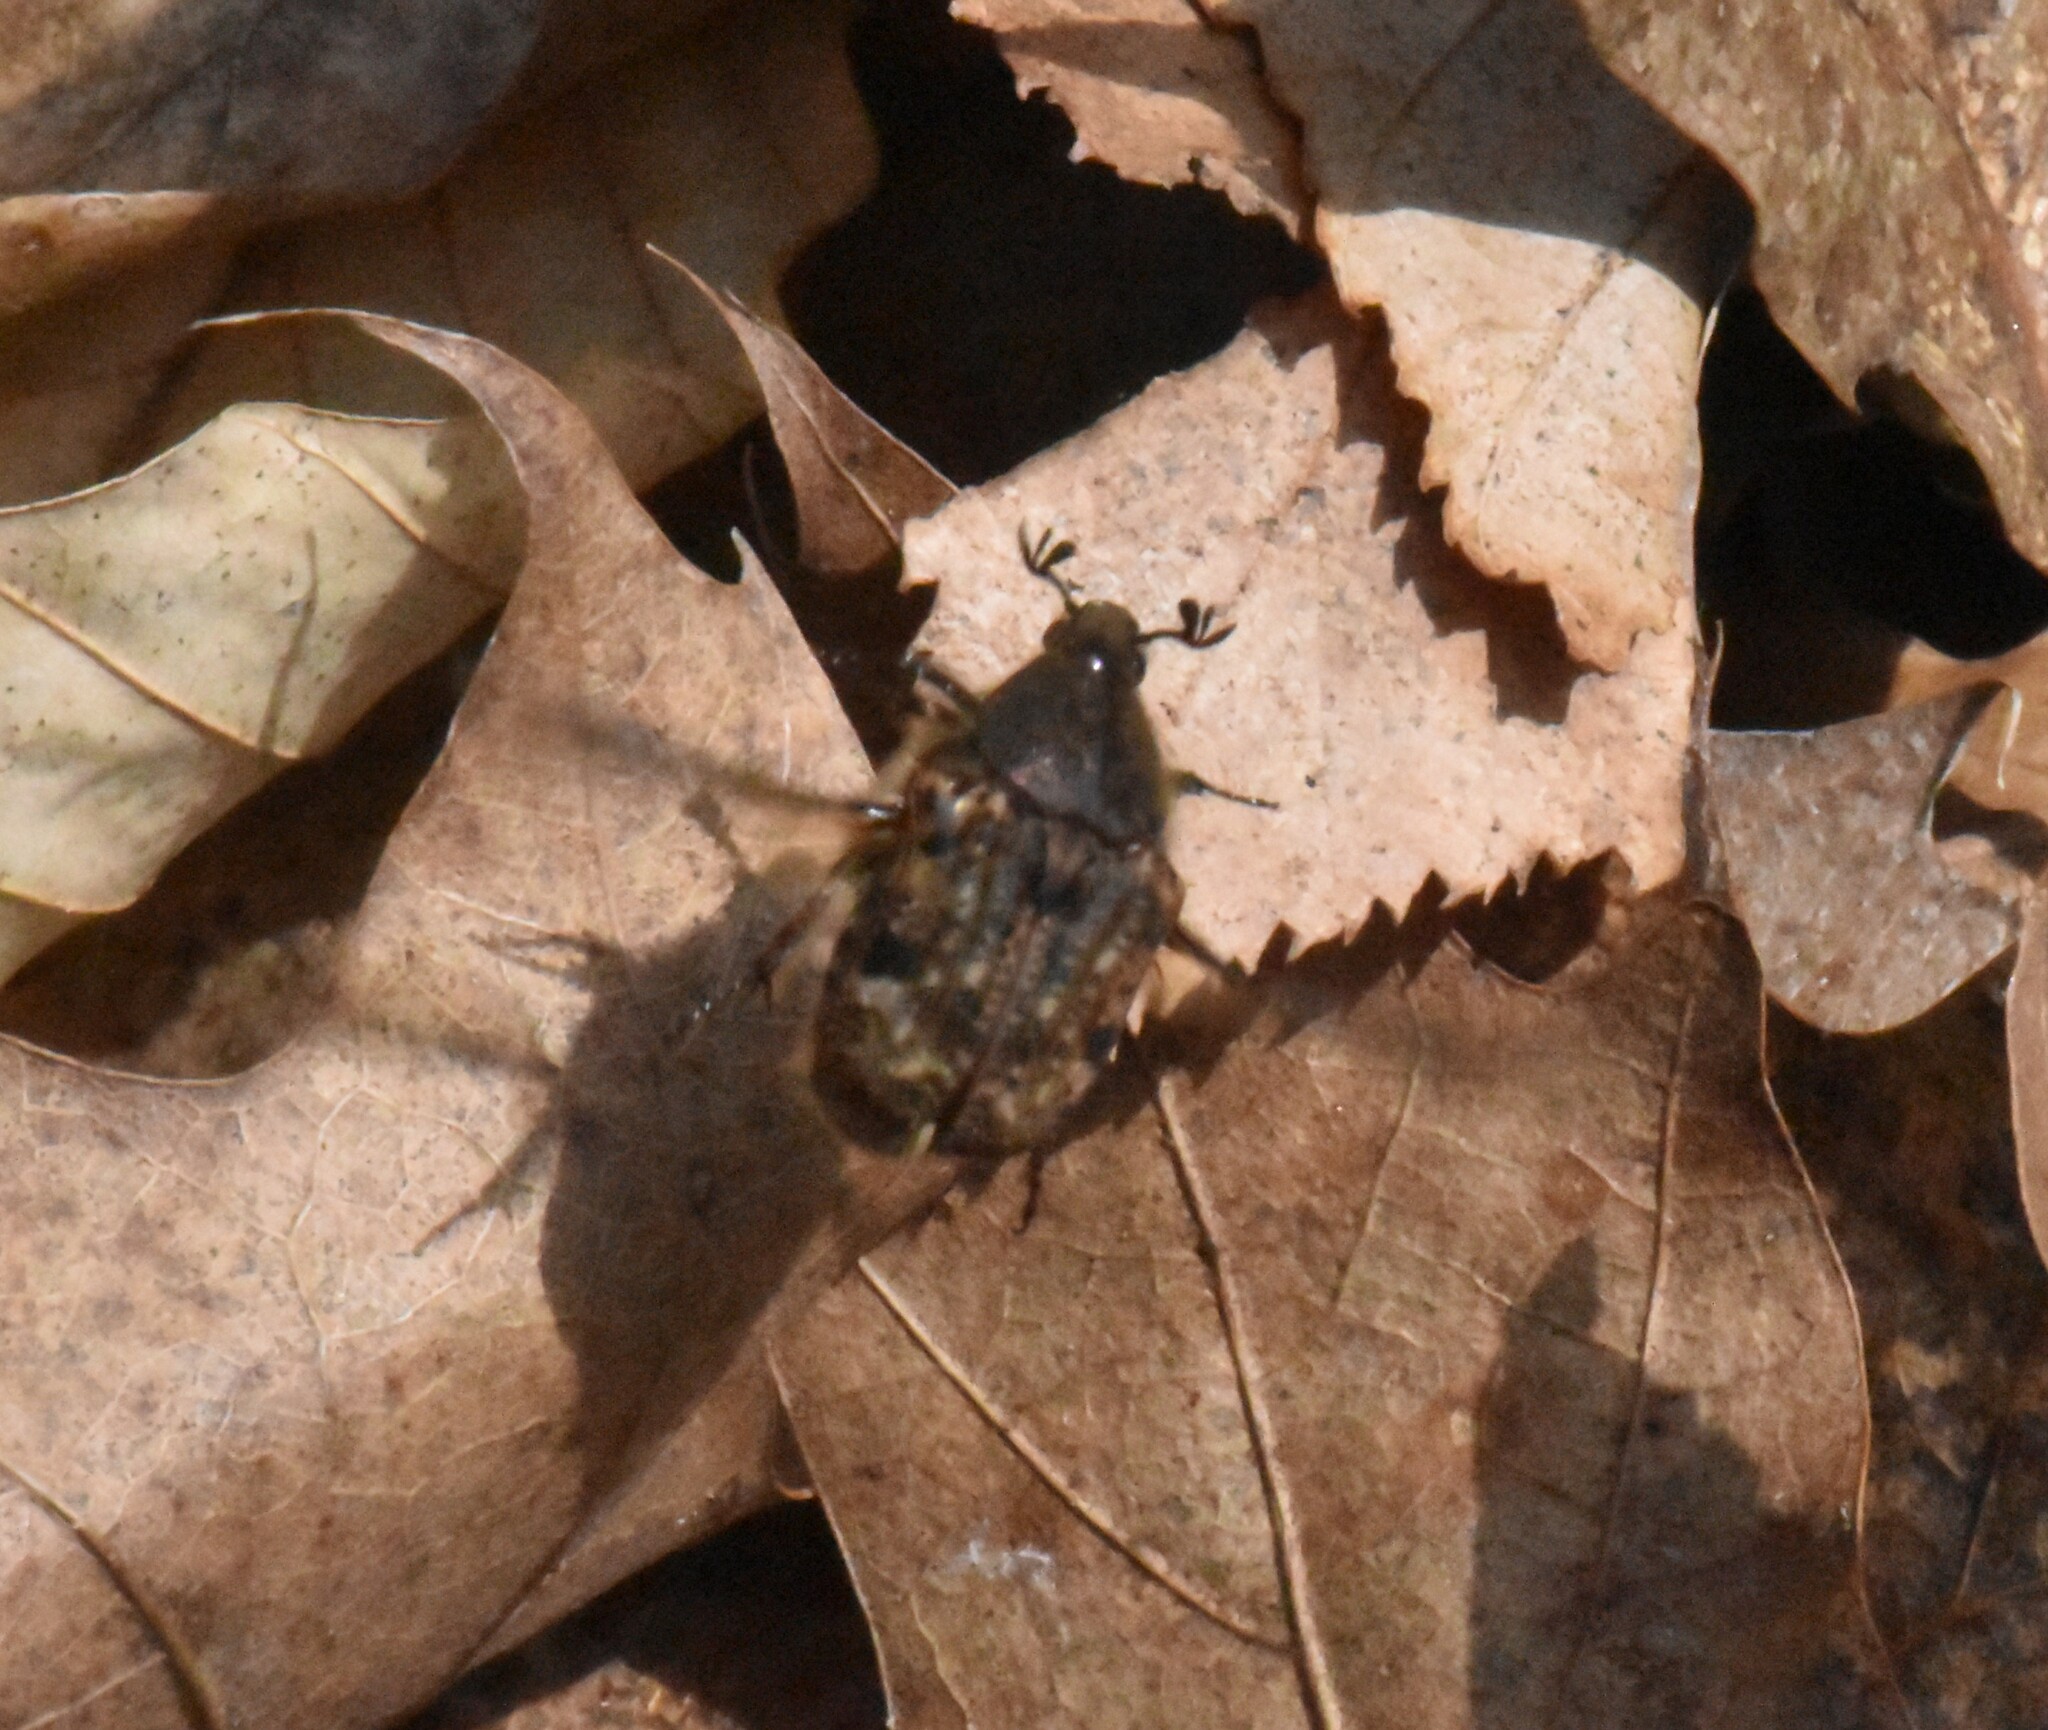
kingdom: Animalia
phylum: Arthropoda
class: Insecta
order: Coleoptera
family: Scarabaeidae
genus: Euphoria
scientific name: Euphoria inda
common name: Bumble flower beetle
